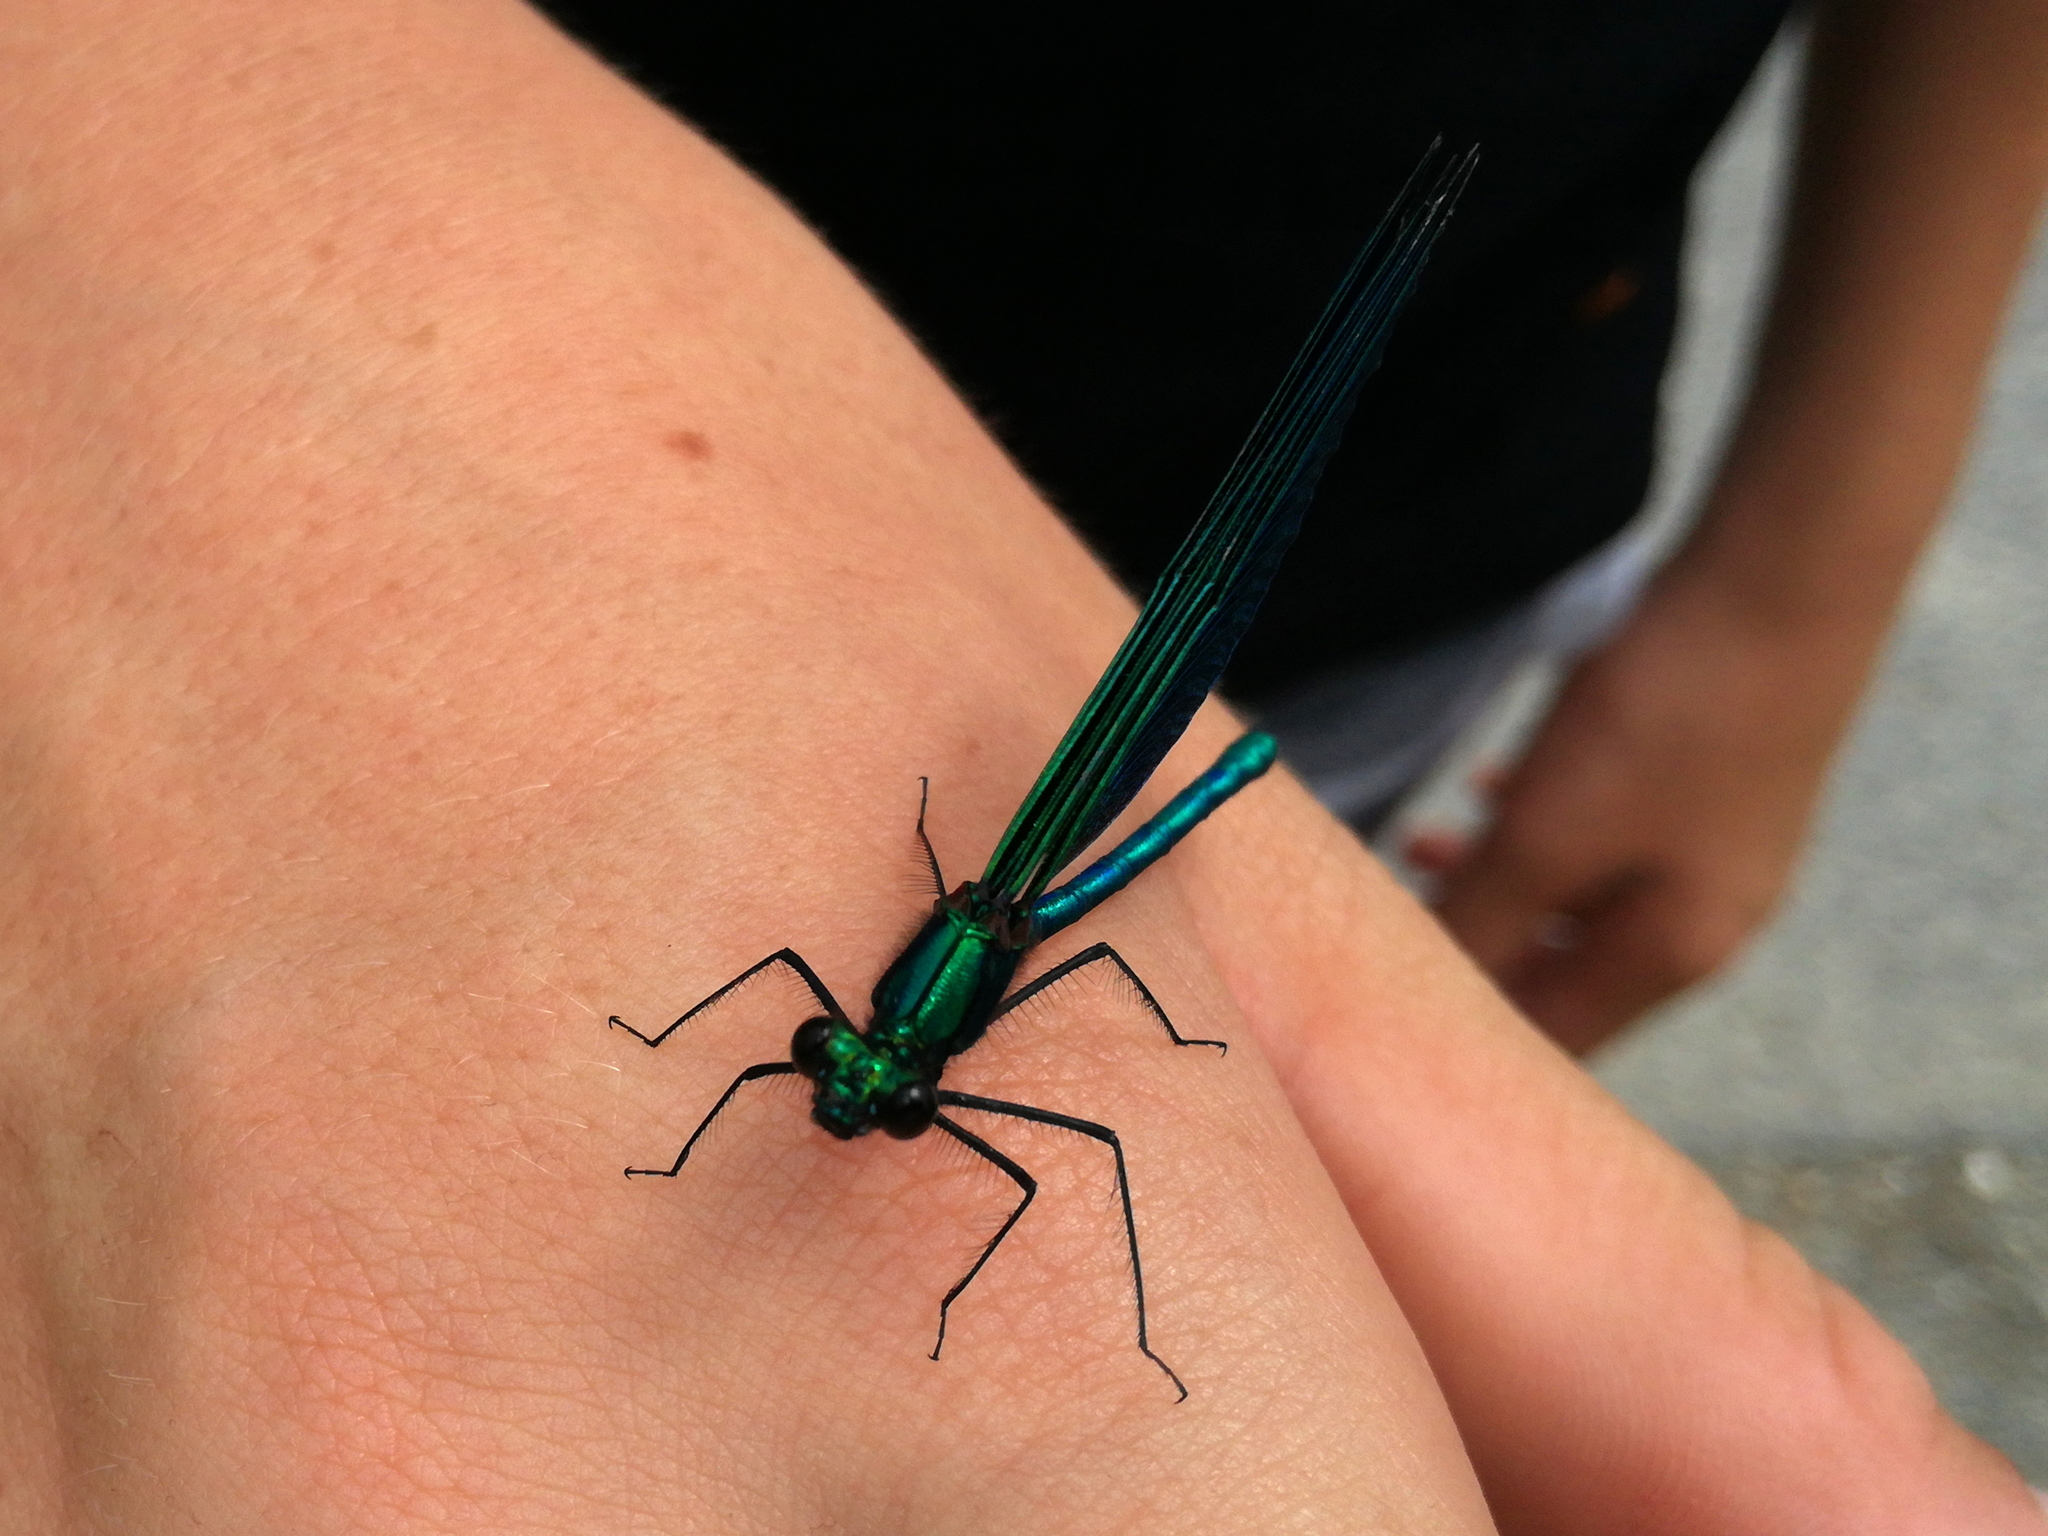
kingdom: Animalia
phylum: Arthropoda
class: Insecta
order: Odonata
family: Calopterygidae
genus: Calopteryx
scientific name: Calopteryx virgo
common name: Beautiful demoiselle
